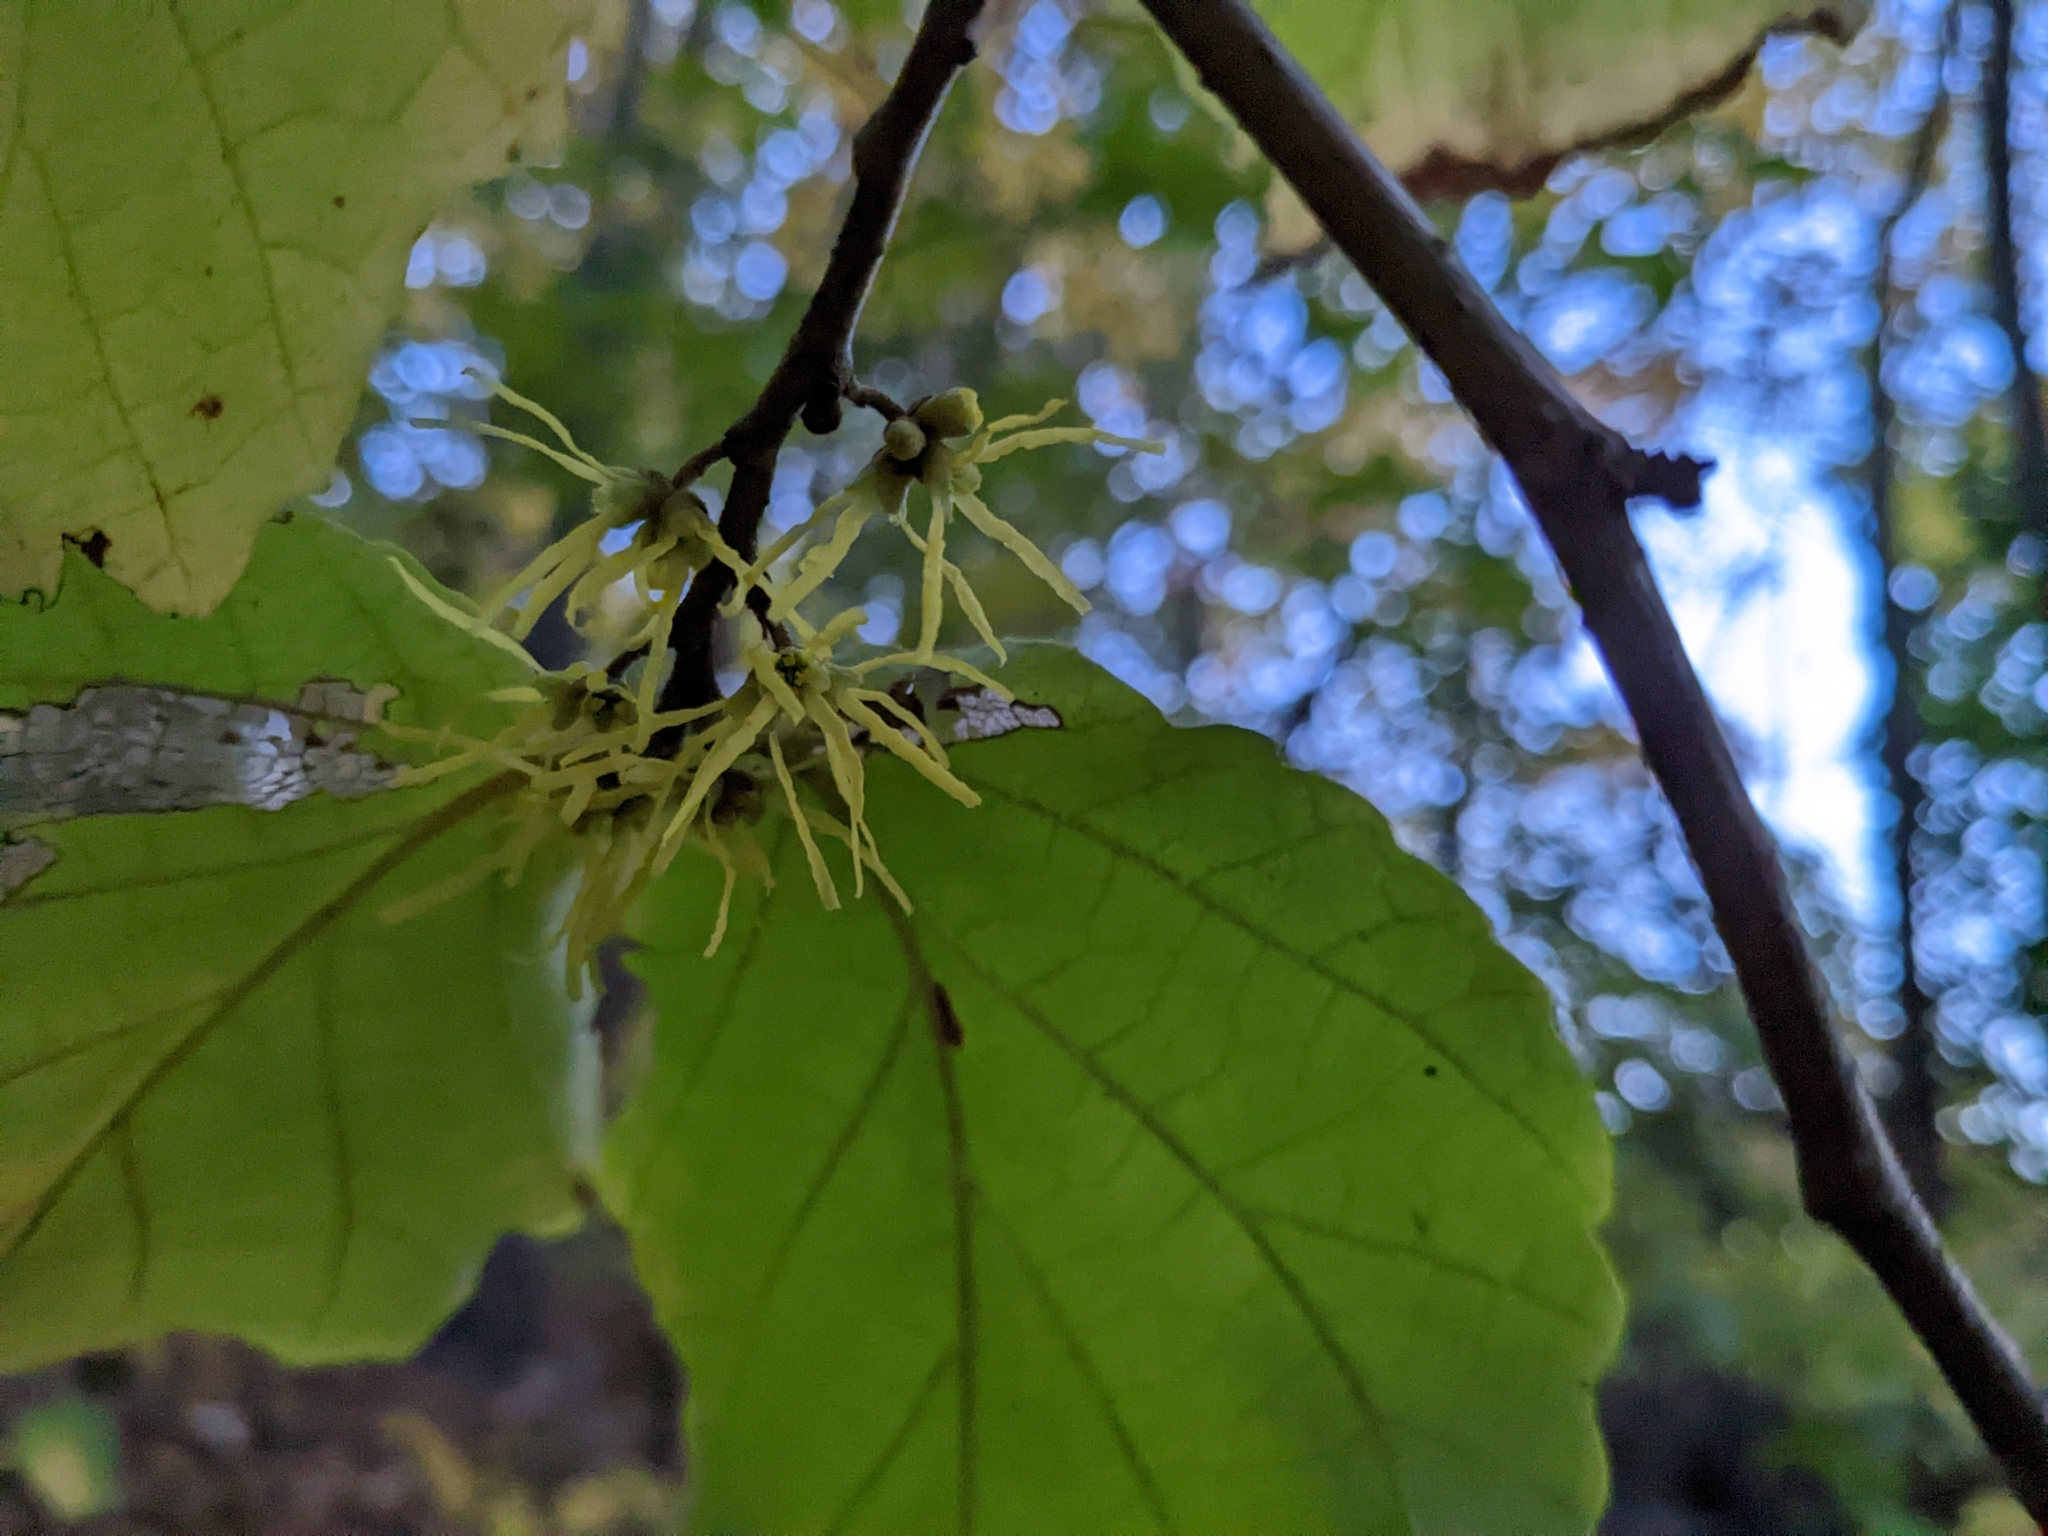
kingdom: Plantae
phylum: Tracheophyta
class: Magnoliopsida
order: Saxifragales
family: Hamamelidaceae
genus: Hamamelis
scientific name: Hamamelis virginiana
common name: Witch-hazel
